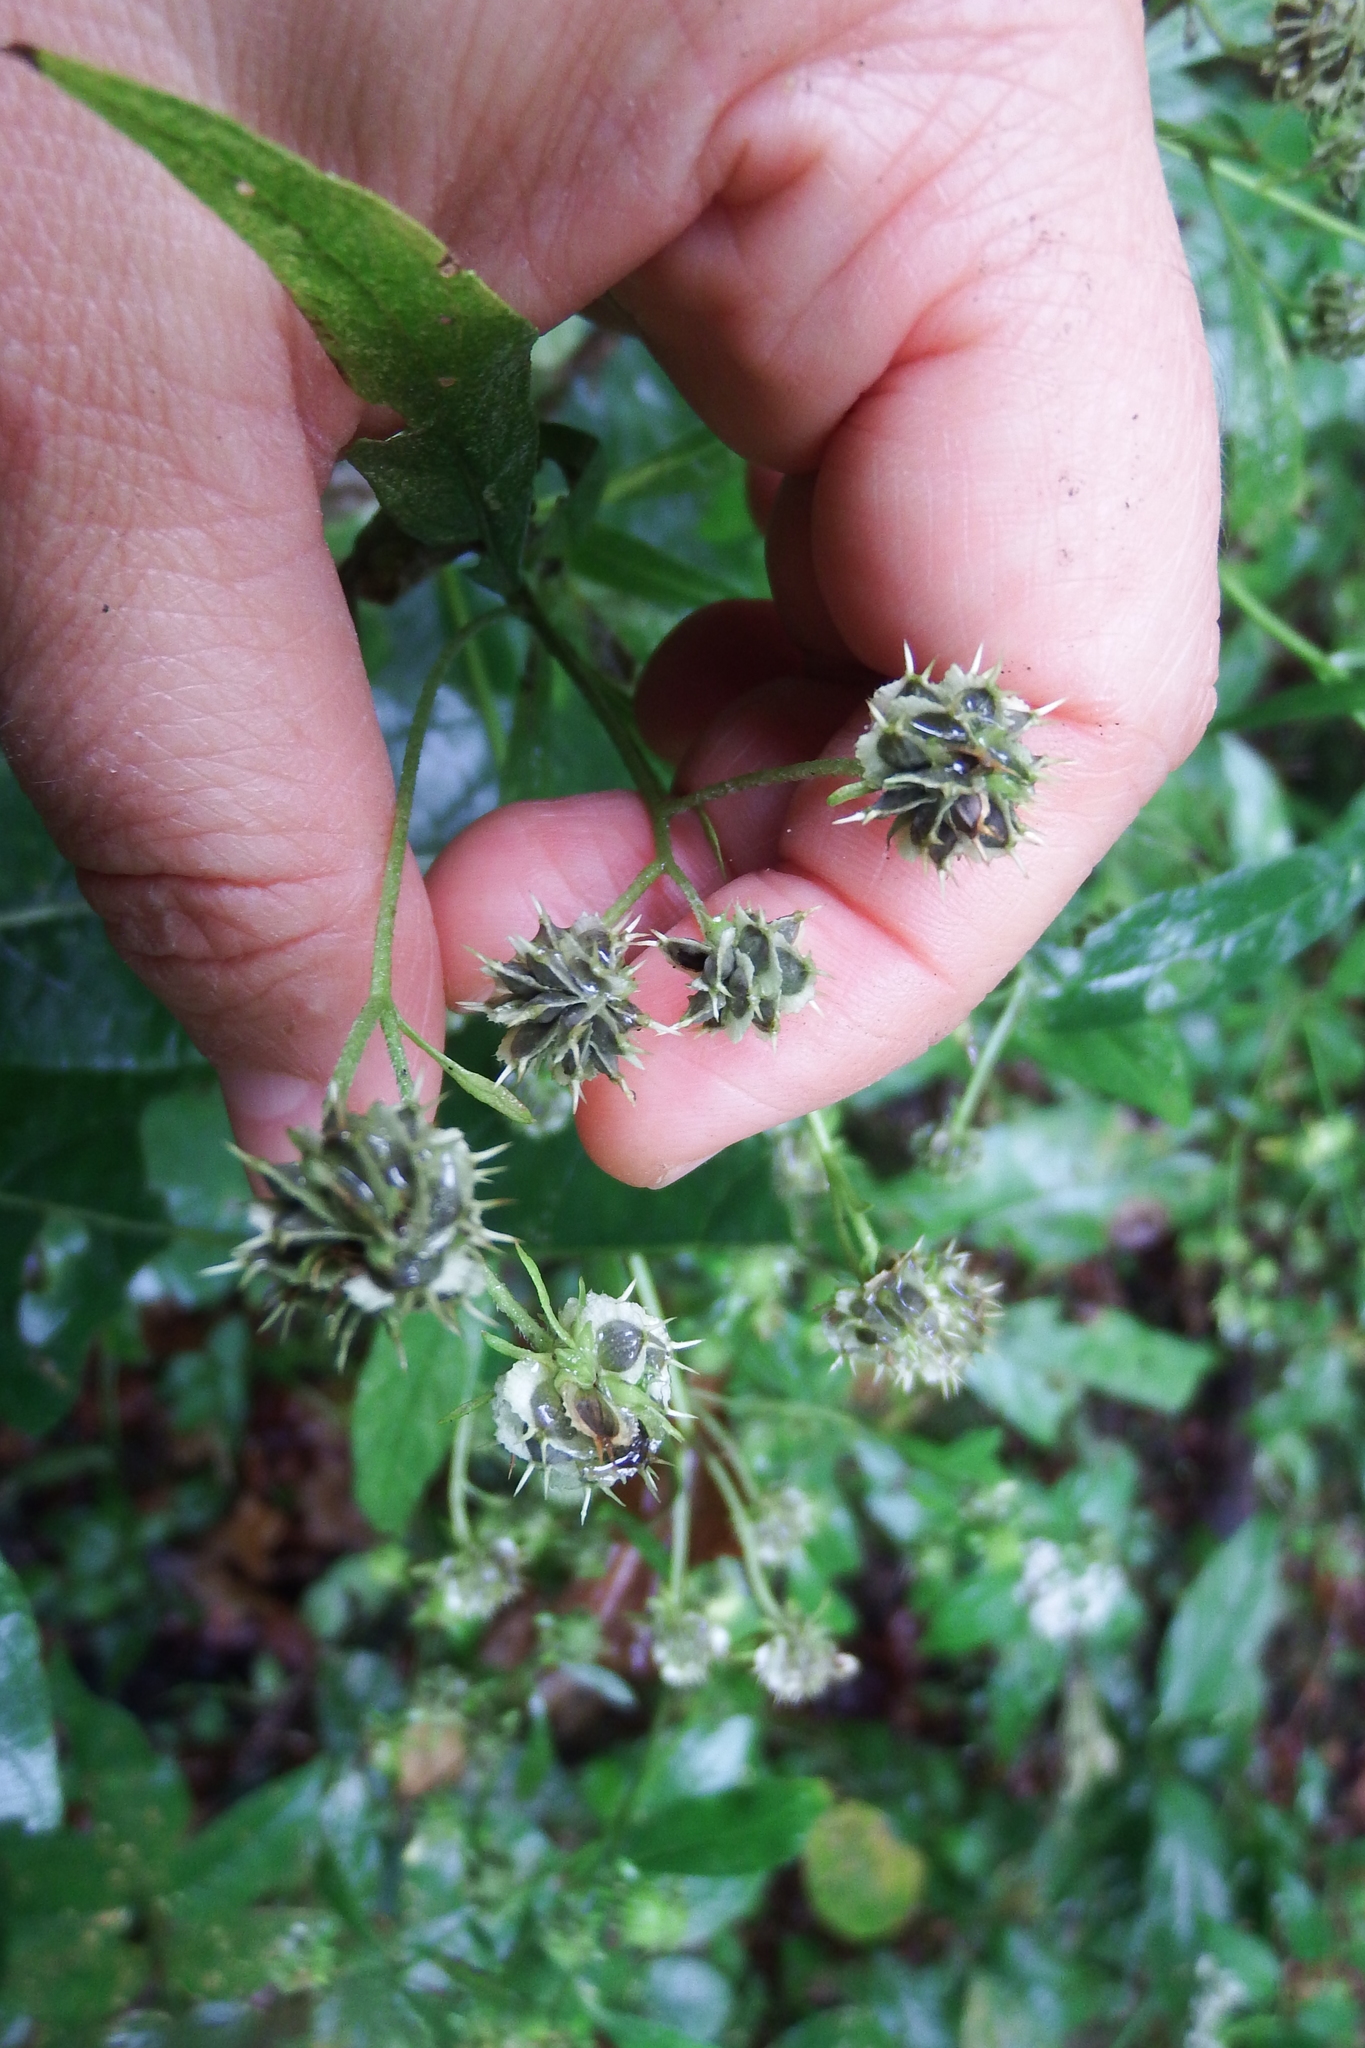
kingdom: Plantae
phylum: Tracheophyta
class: Magnoliopsida
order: Asterales
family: Asteraceae
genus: Verbesina
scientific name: Verbesina alternifolia
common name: Wingstem
